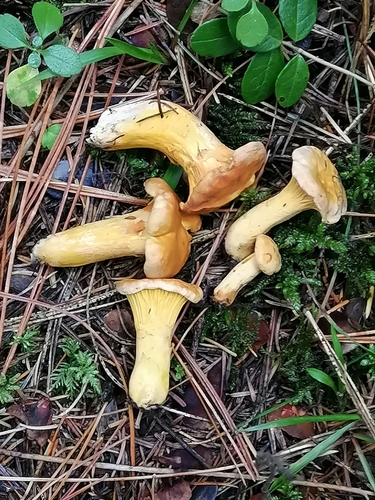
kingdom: Fungi
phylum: Basidiomycota
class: Agaricomycetes
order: Cantharellales
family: Hydnaceae
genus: Cantharellus
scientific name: Cantharellus cibarius
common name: Chanterelle
